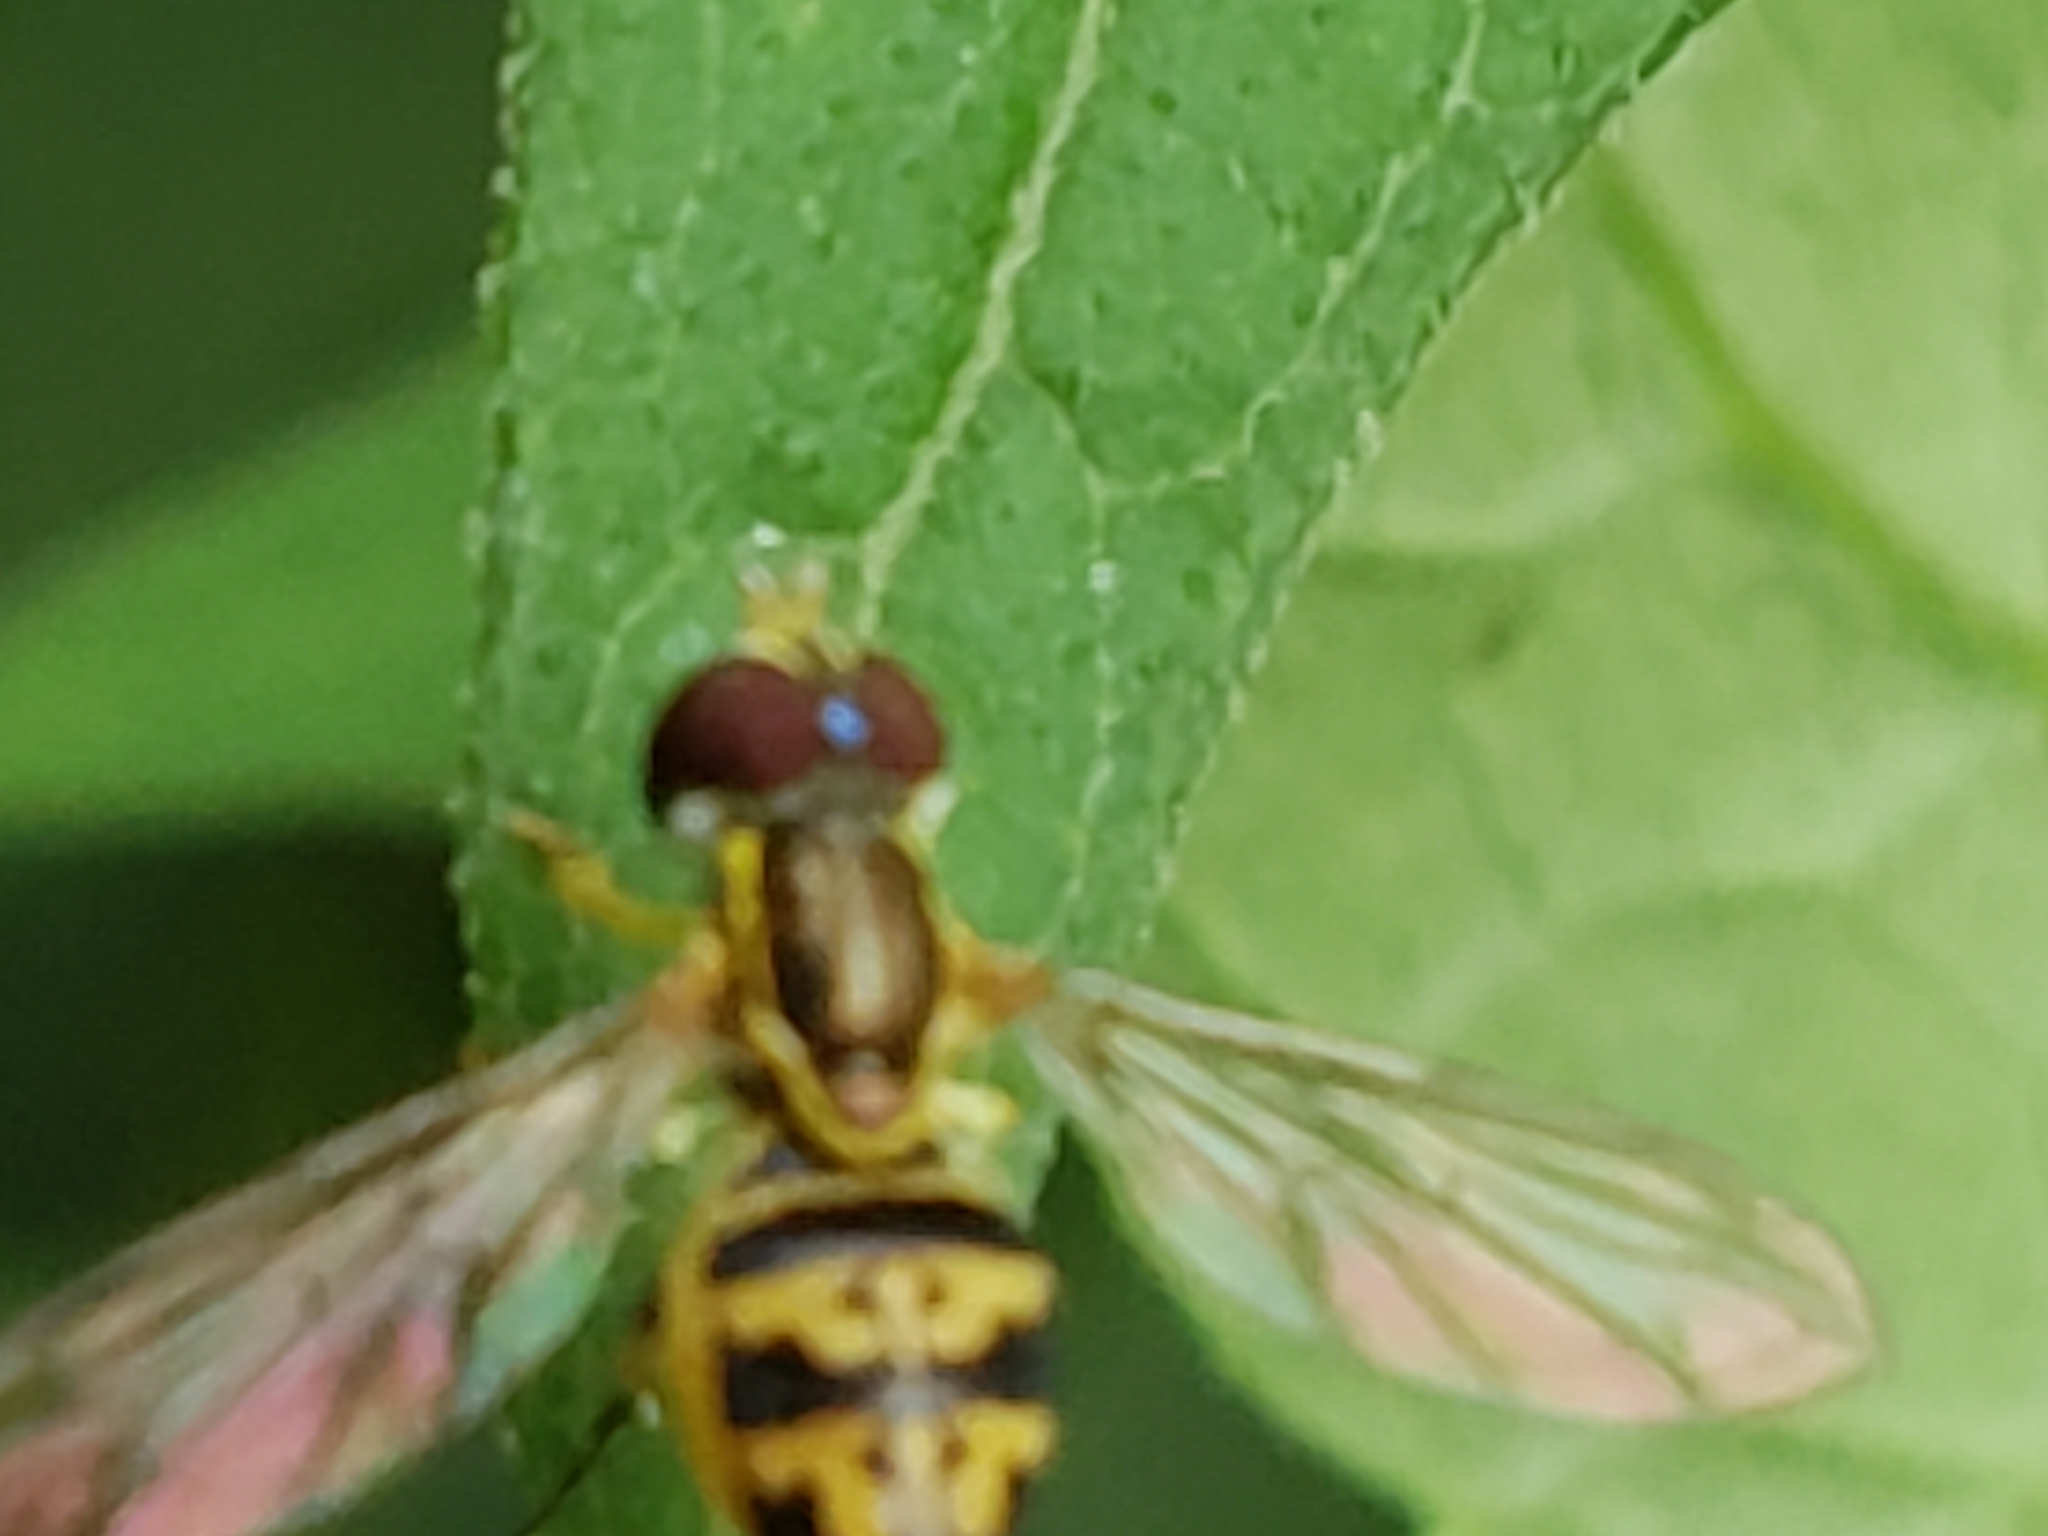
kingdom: Animalia
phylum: Arthropoda
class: Insecta
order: Diptera
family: Syrphidae
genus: Toxomerus
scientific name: Toxomerus geminatus
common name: Eastern calligrapher
